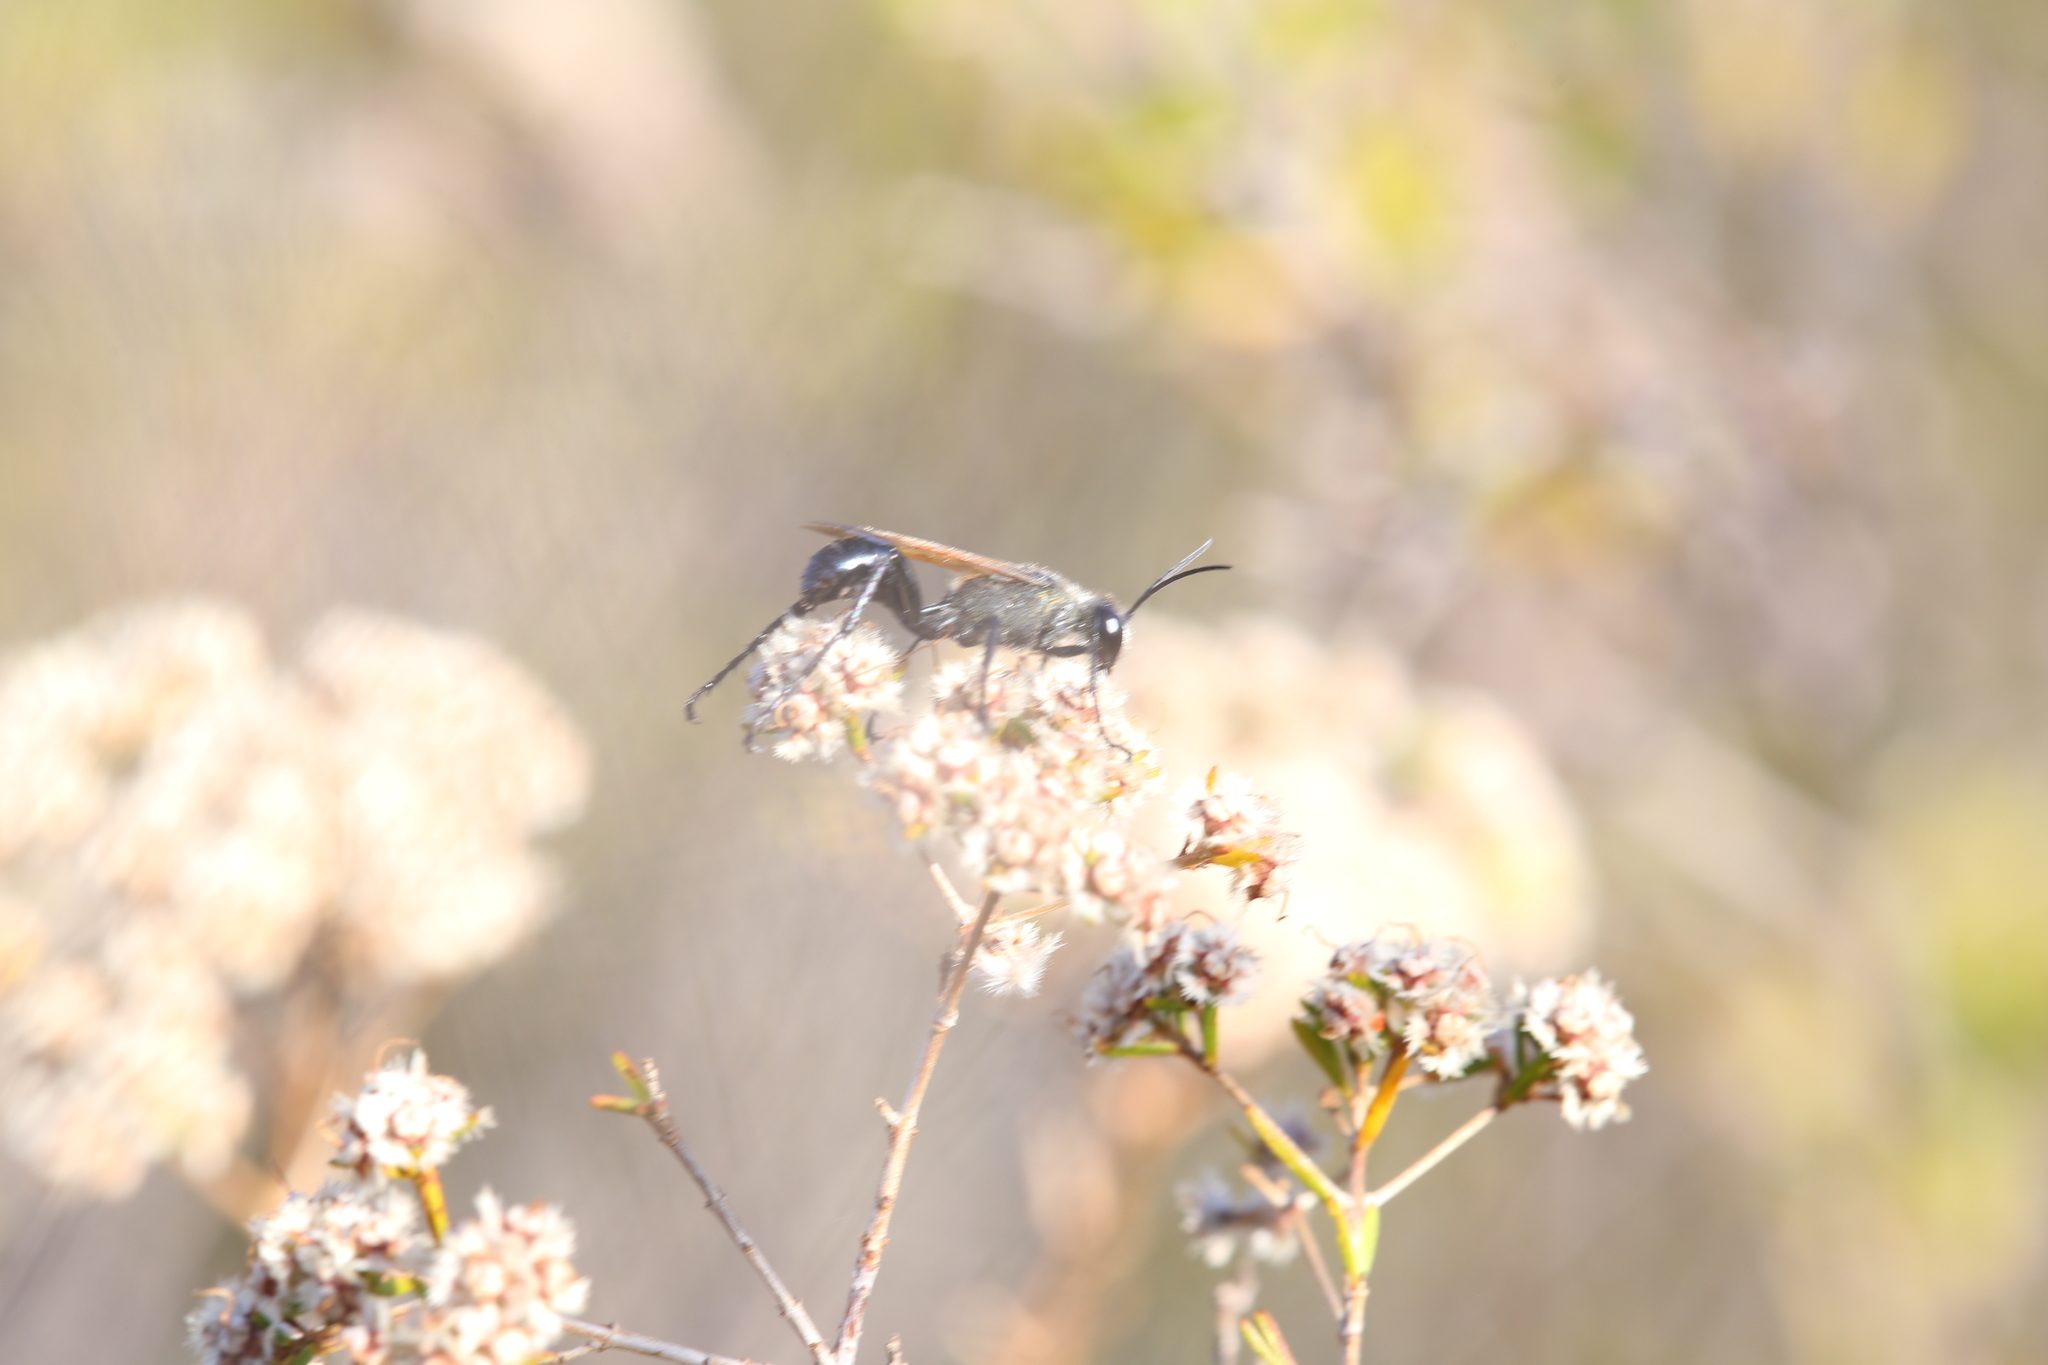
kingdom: Animalia
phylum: Arthropoda
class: Insecta
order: Hymenoptera
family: Sphecidae
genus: Prionyx
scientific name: Prionyx saevus
